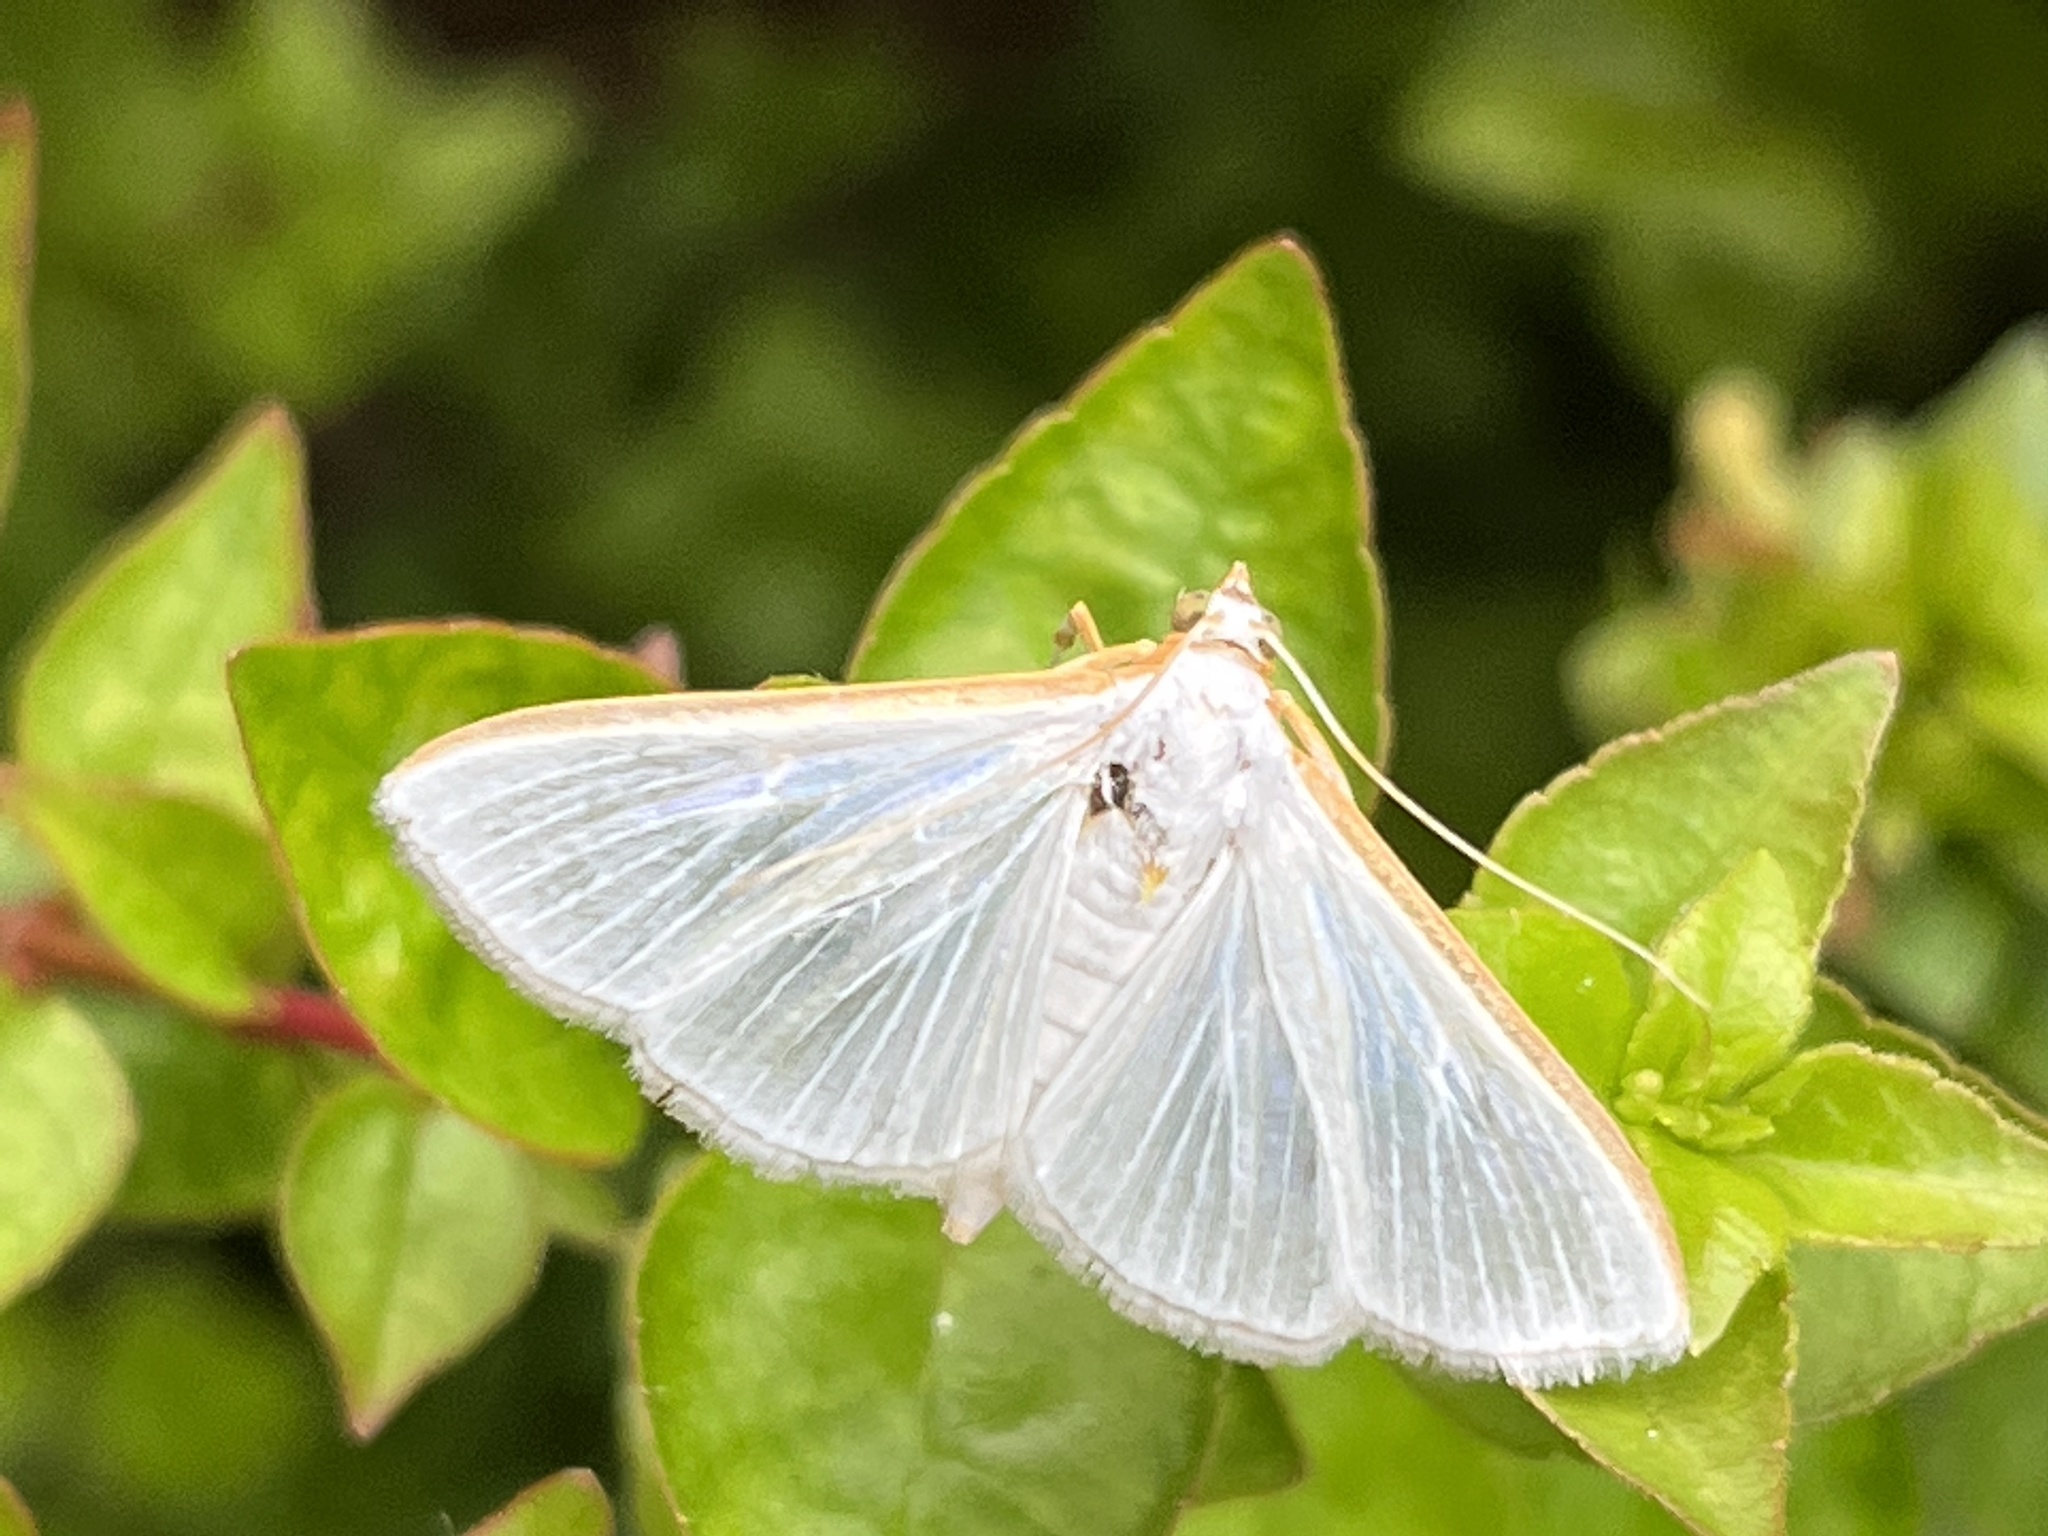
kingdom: Animalia
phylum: Arthropoda
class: Insecta
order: Lepidoptera
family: Crambidae
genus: Diaphania
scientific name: Diaphania costata
